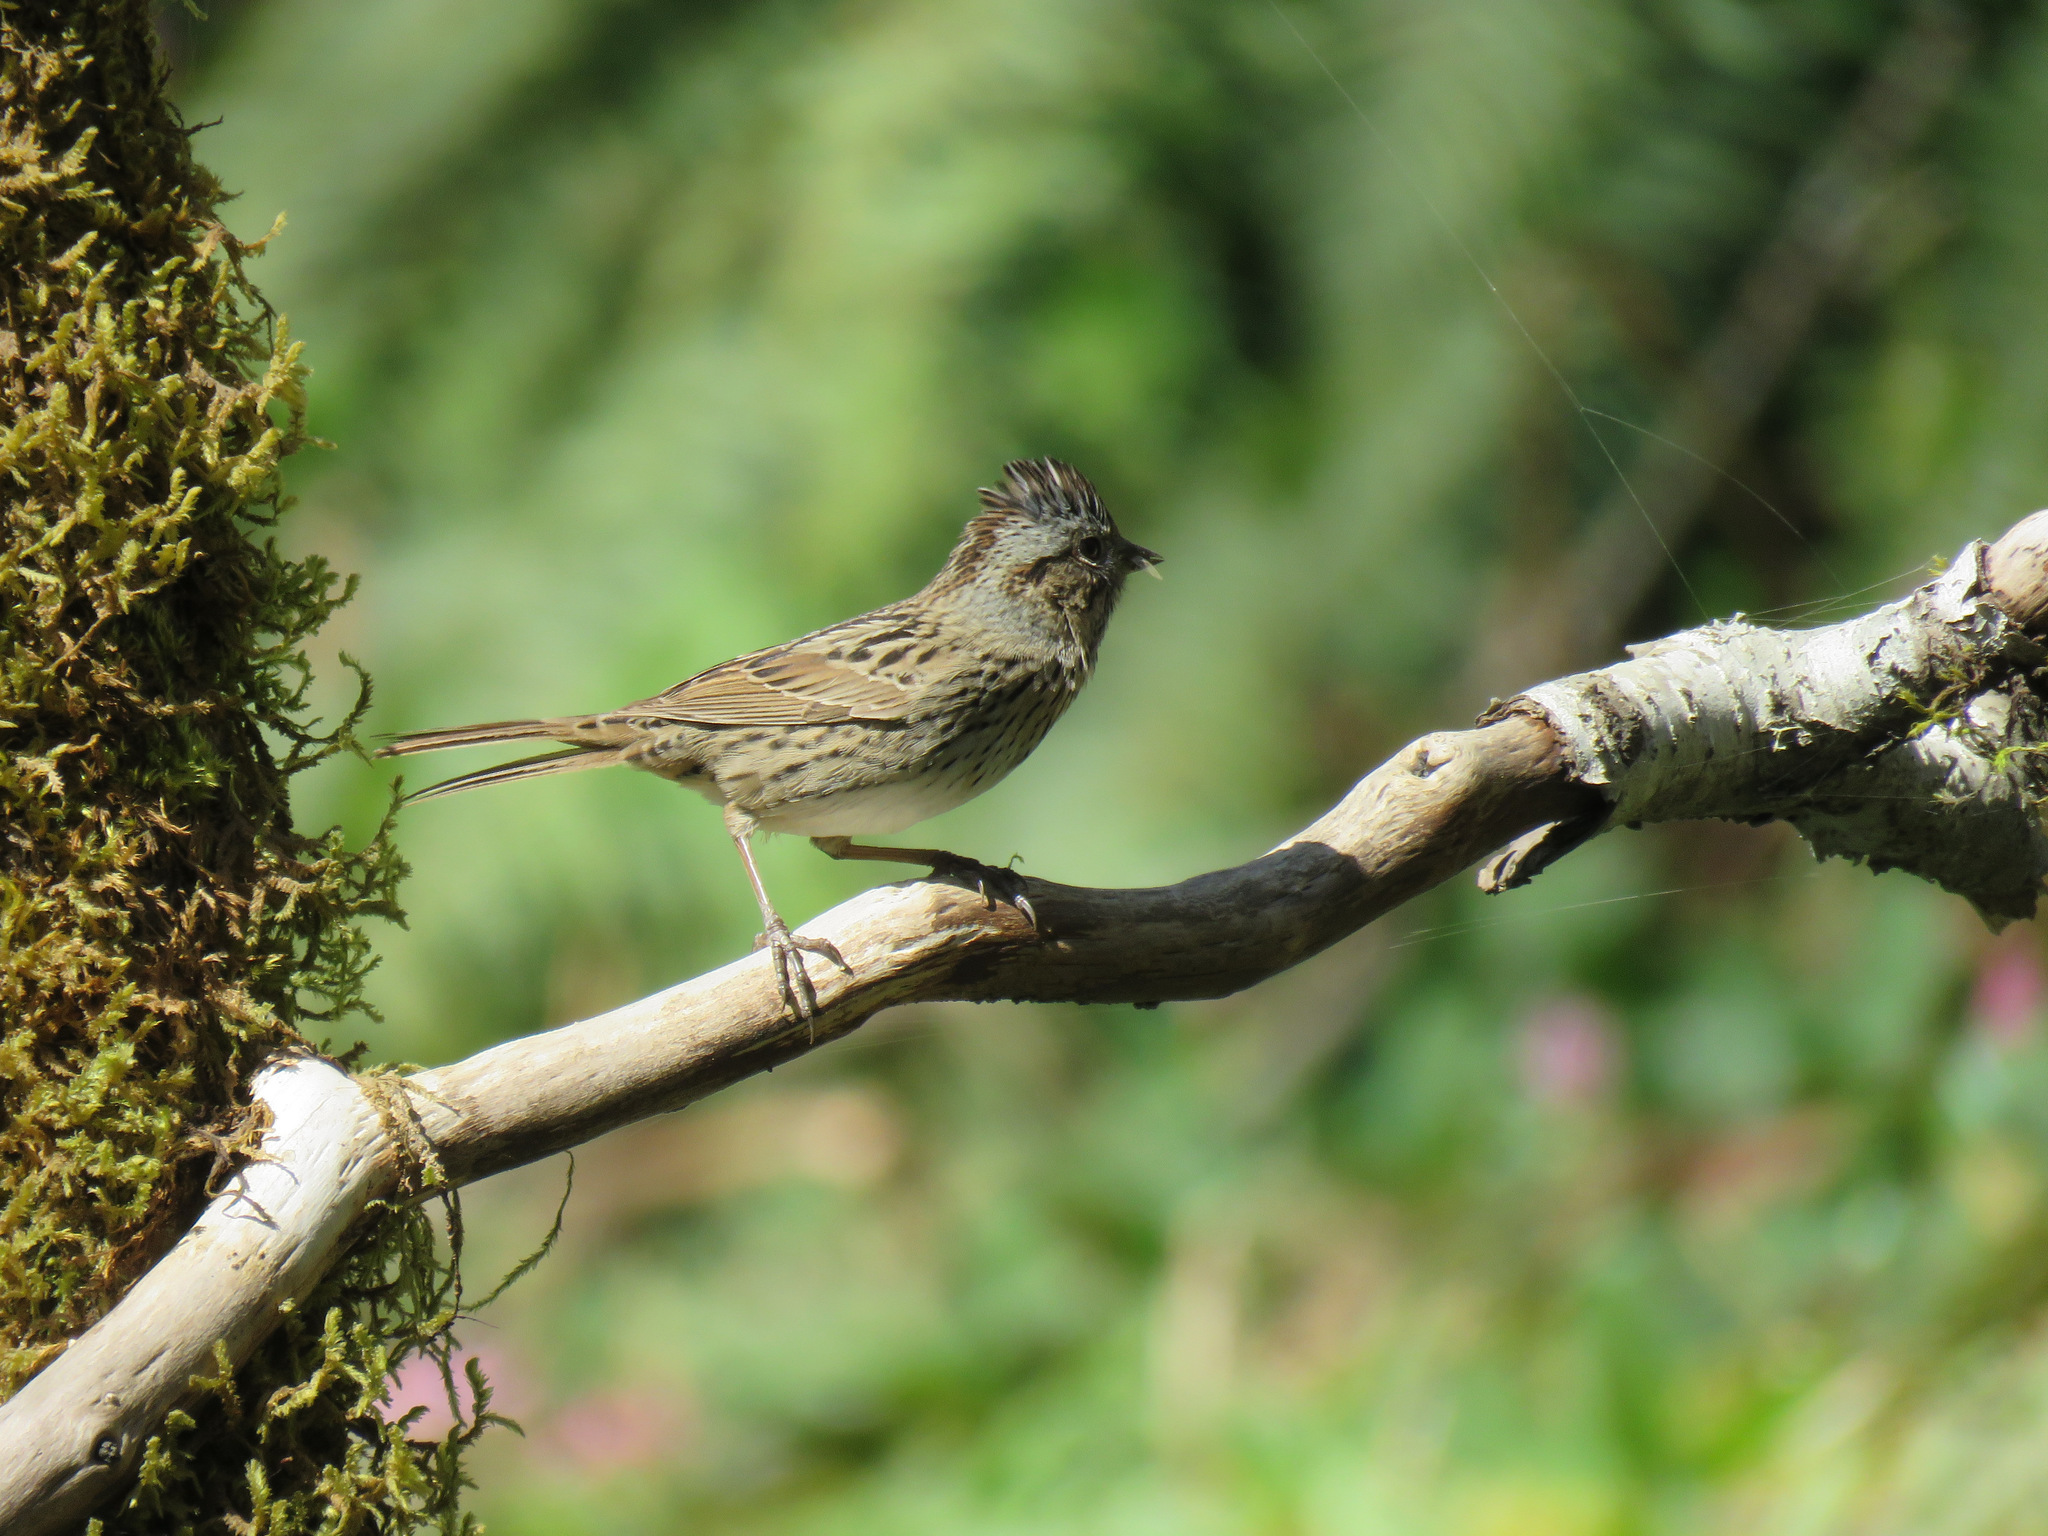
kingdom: Animalia
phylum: Chordata
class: Aves
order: Passeriformes
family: Passerellidae
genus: Melospiza
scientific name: Melospiza lincolnii
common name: Lincoln's sparrow
